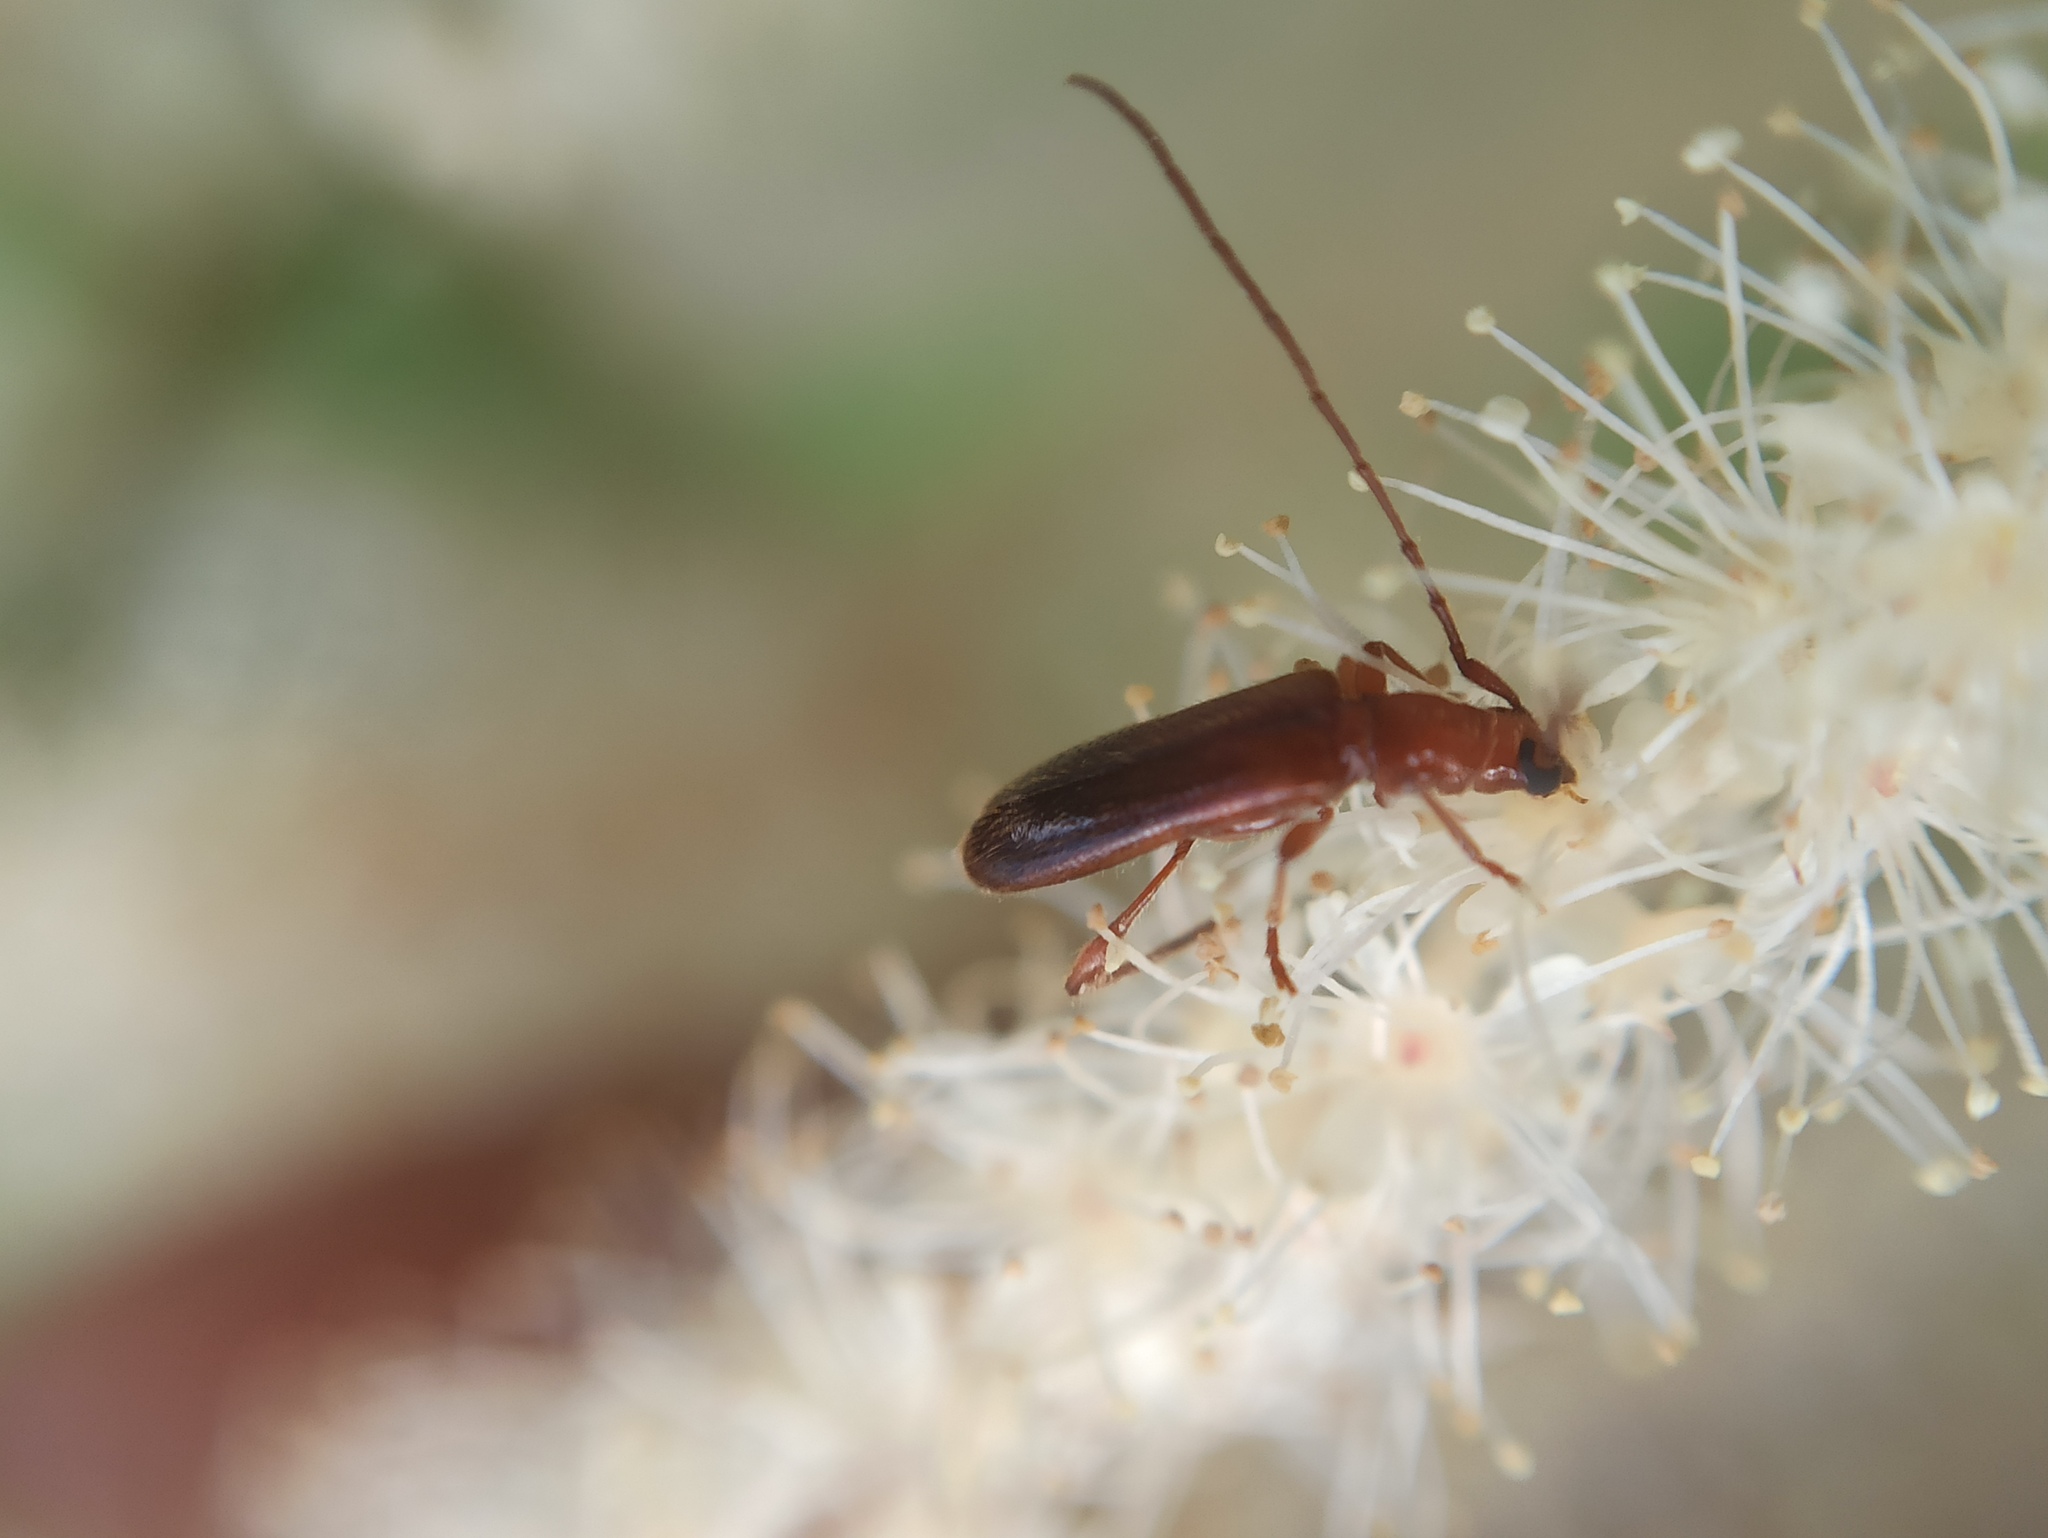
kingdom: Animalia
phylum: Arthropoda
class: Insecta
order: Coleoptera
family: Cerambycidae
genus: Obrium
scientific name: Obrium brunneum
